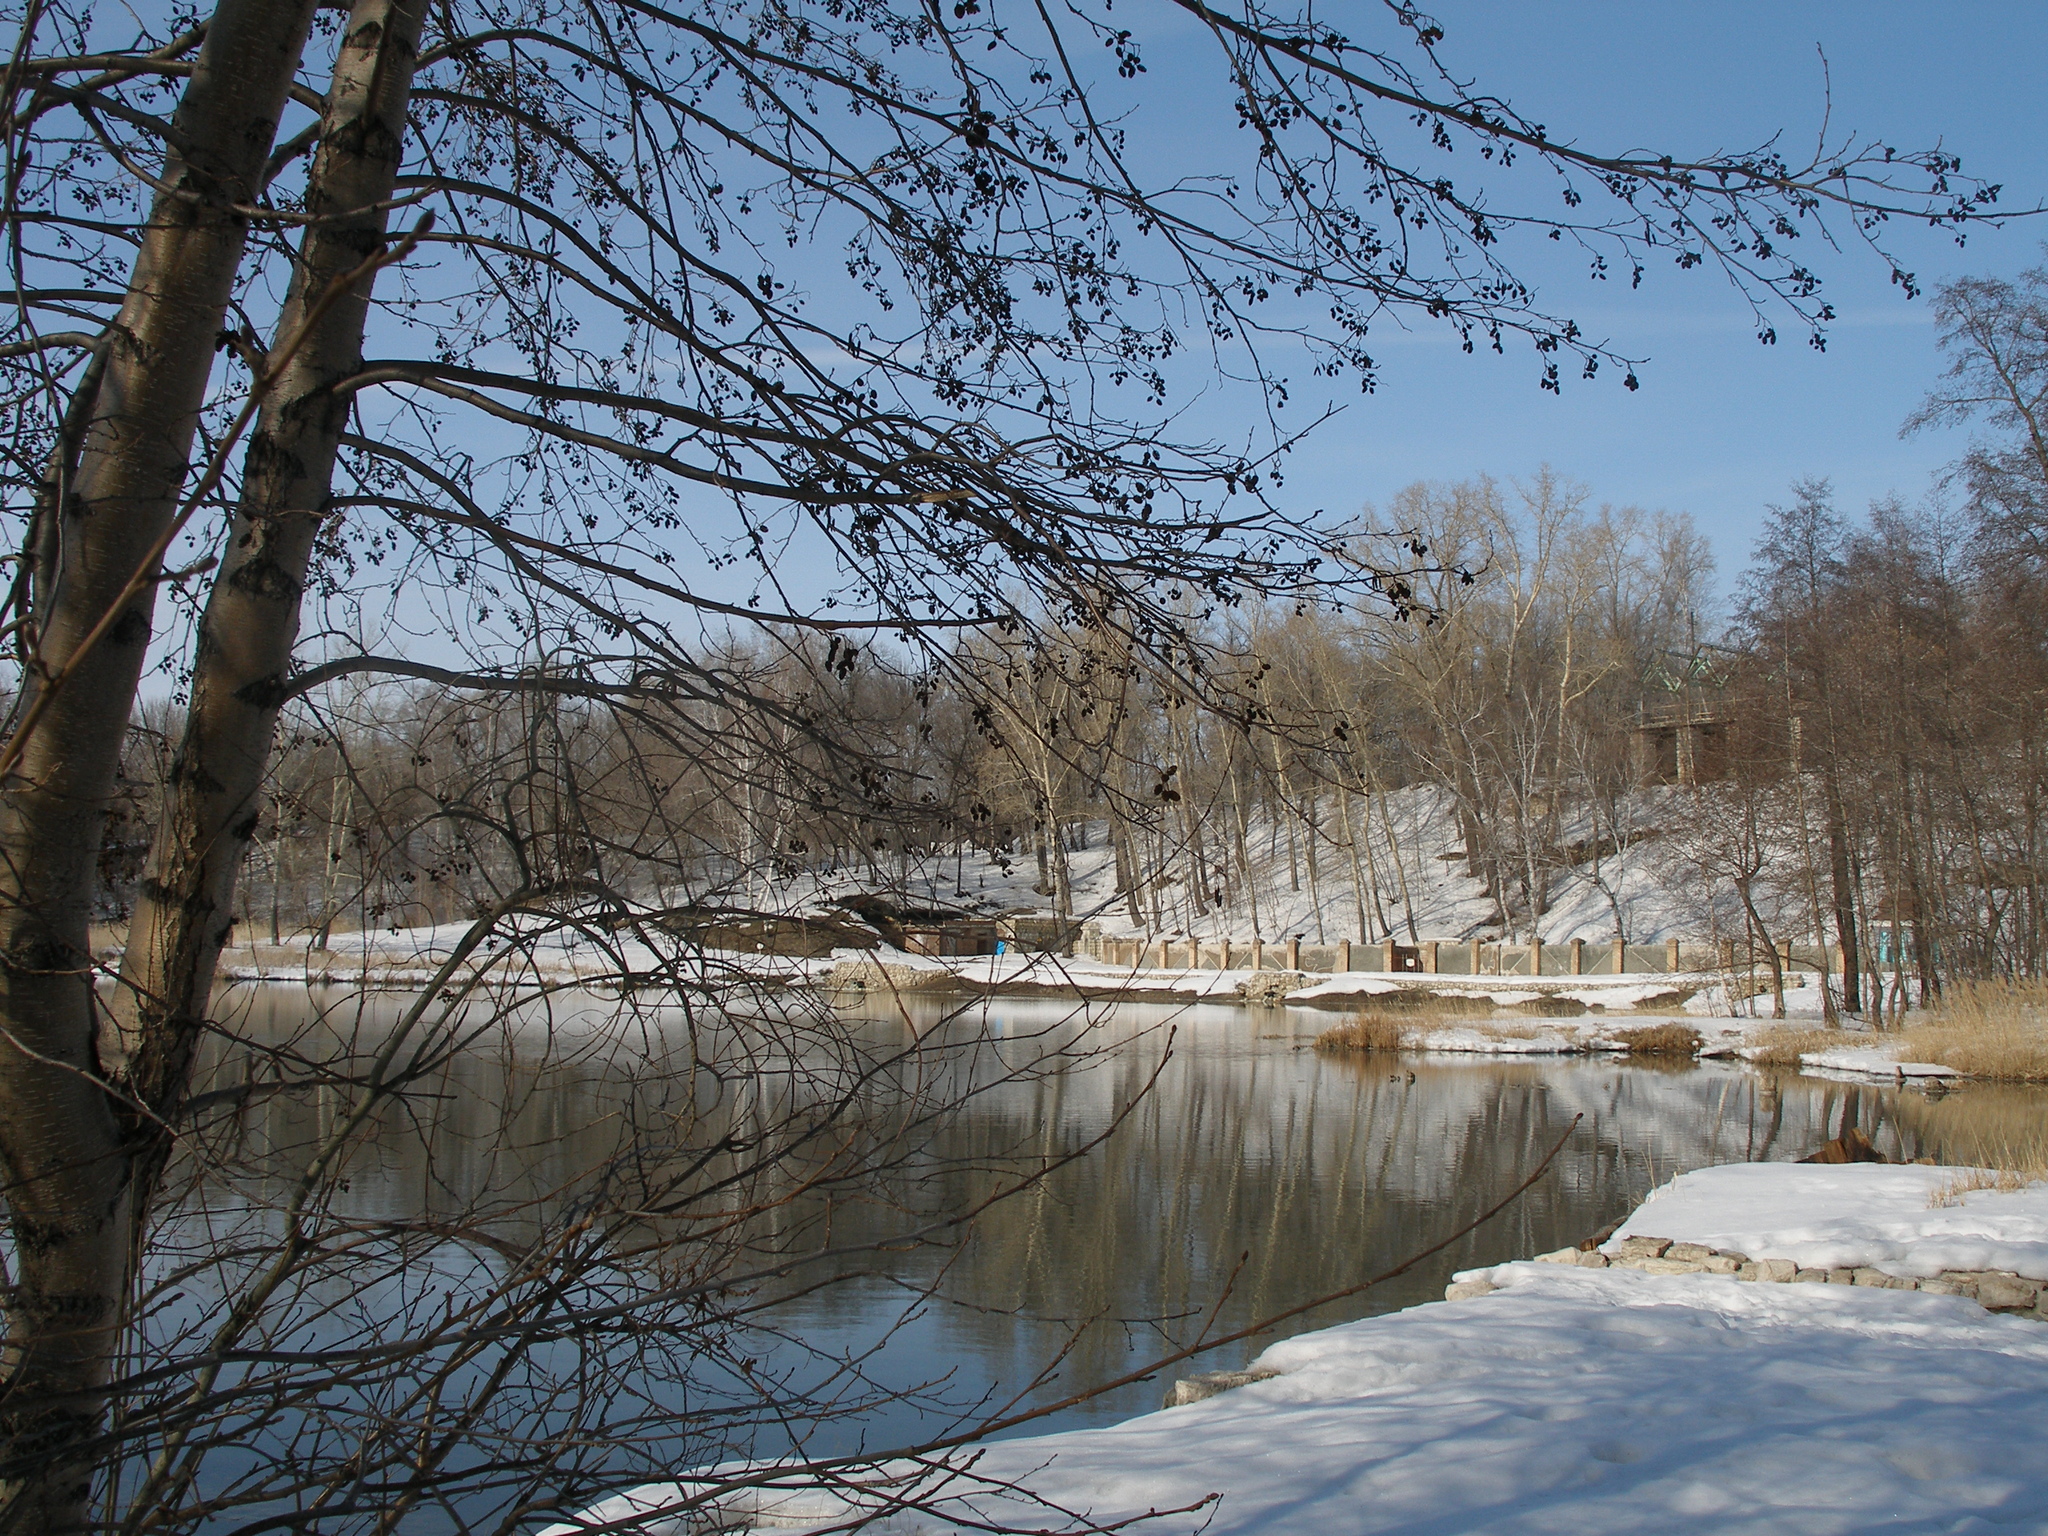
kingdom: Plantae
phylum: Tracheophyta
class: Magnoliopsida
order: Fagales
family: Betulaceae
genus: Alnus
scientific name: Alnus glutinosa
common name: Black alder
